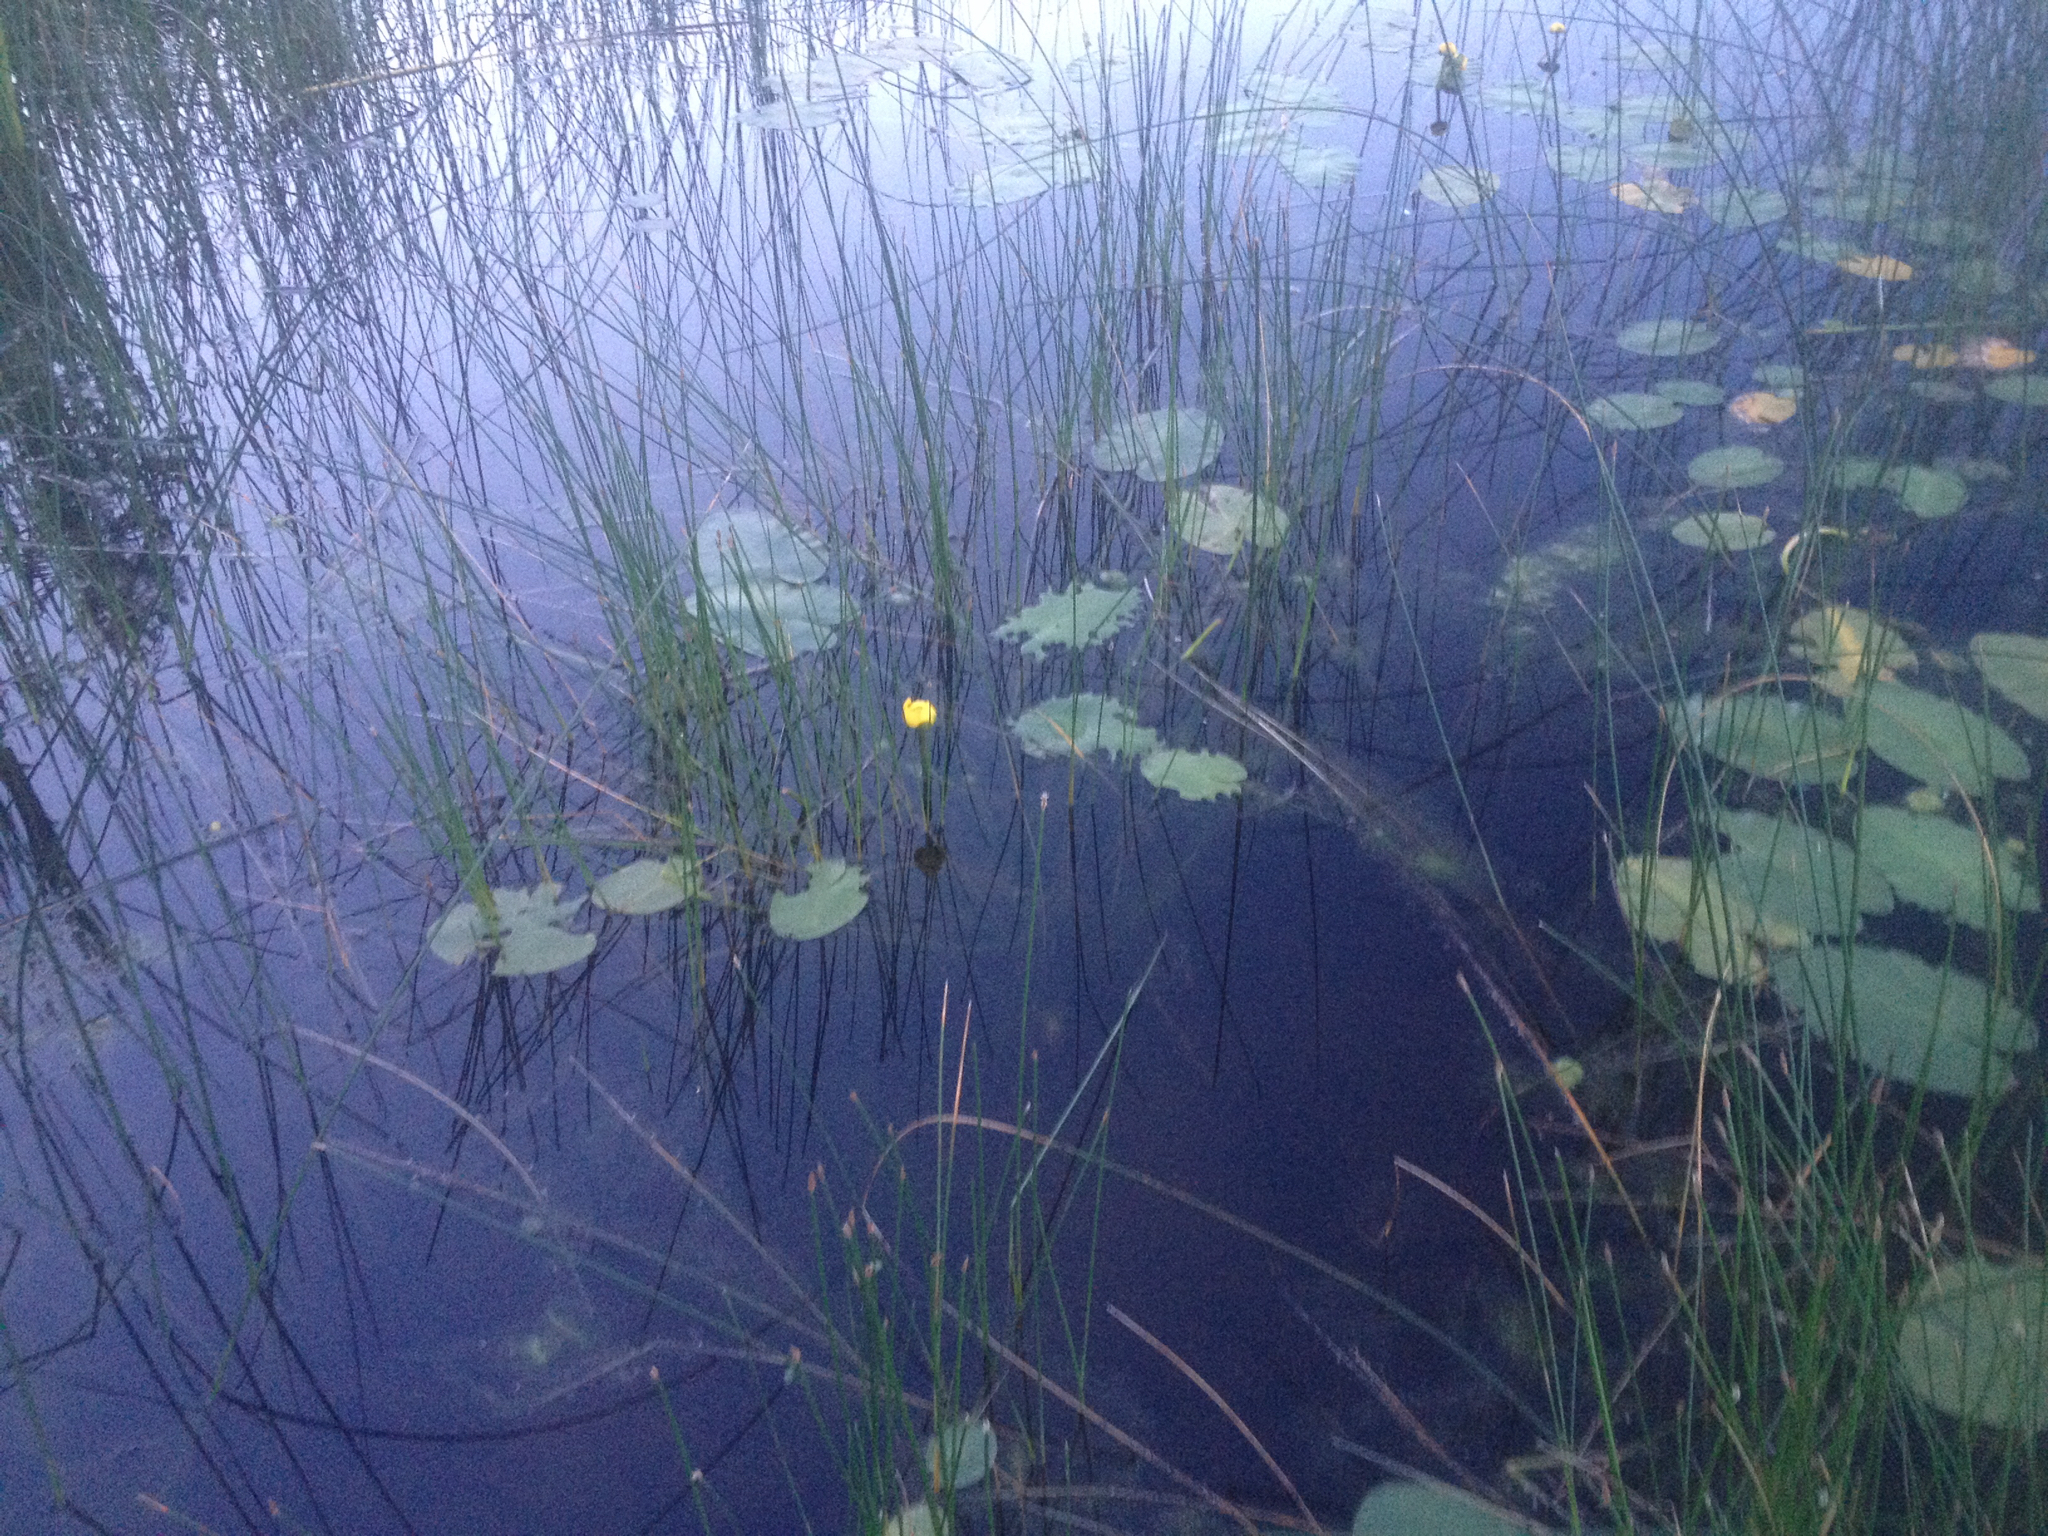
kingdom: Plantae
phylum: Tracheophyta
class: Magnoliopsida
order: Nymphaeales
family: Nymphaeaceae
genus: Nuphar
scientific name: Nuphar variegata
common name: Beaver-root
